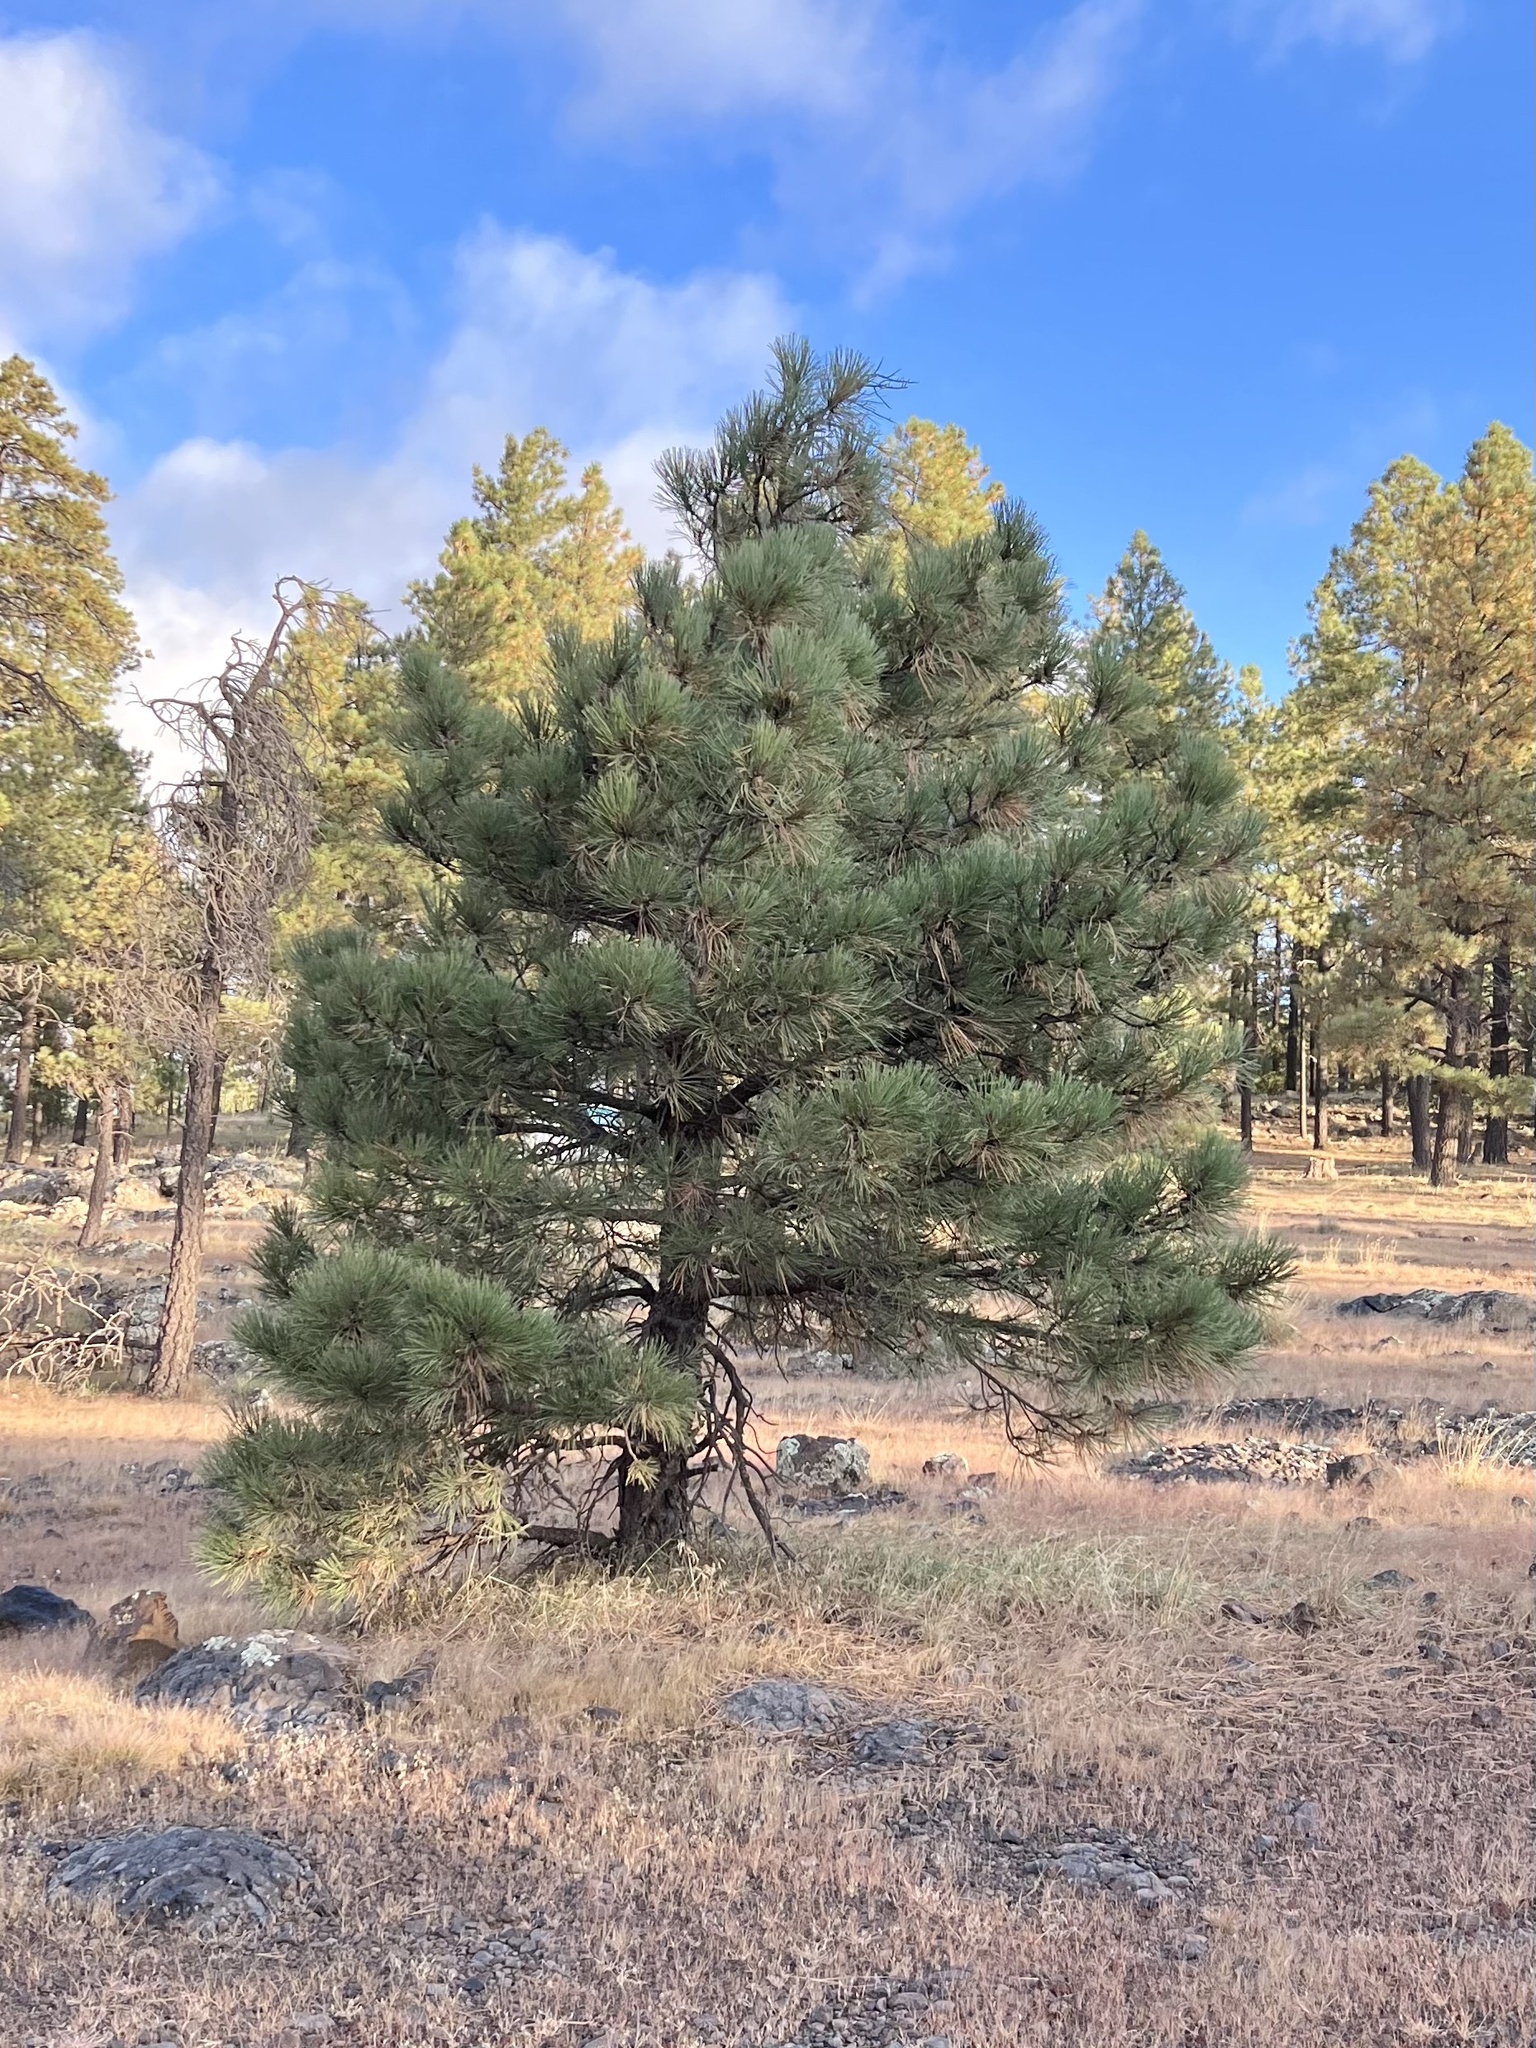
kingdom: Plantae
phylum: Tracheophyta
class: Pinopsida
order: Pinales
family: Pinaceae
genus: Pinus
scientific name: Pinus ponderosa
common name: Western yellow-pine
